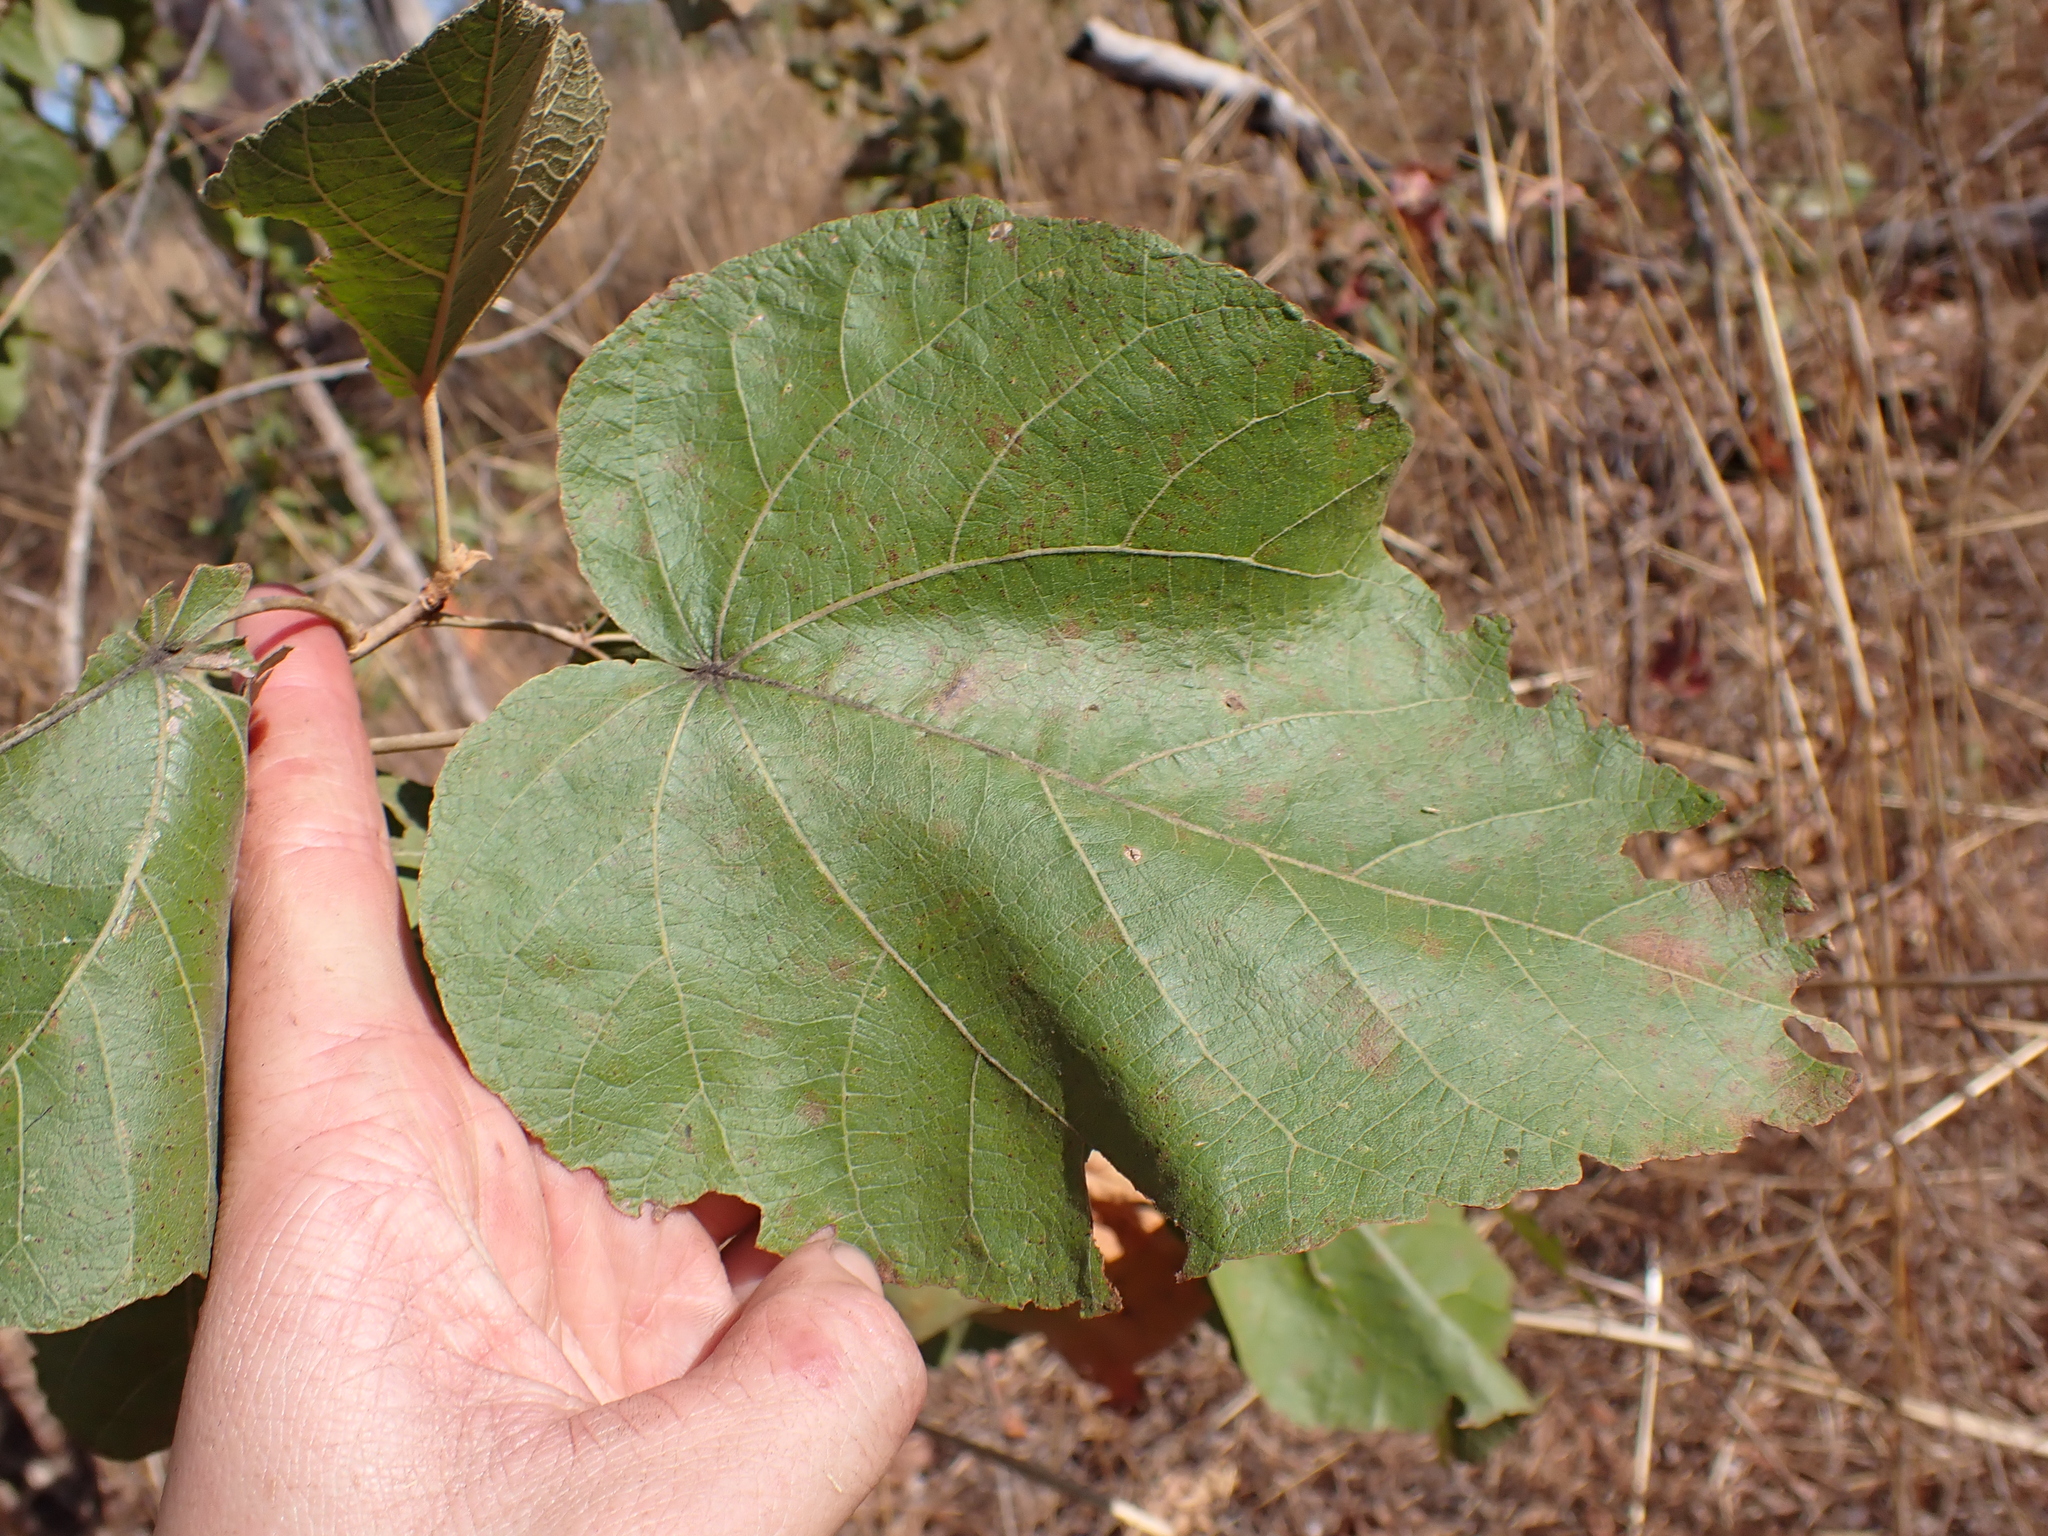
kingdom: Plantae
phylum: Tracheophyta
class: Magnoliopsida
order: Malpighiales
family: Euphorbiaceae
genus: Croton
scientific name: Croton arnhemicus
